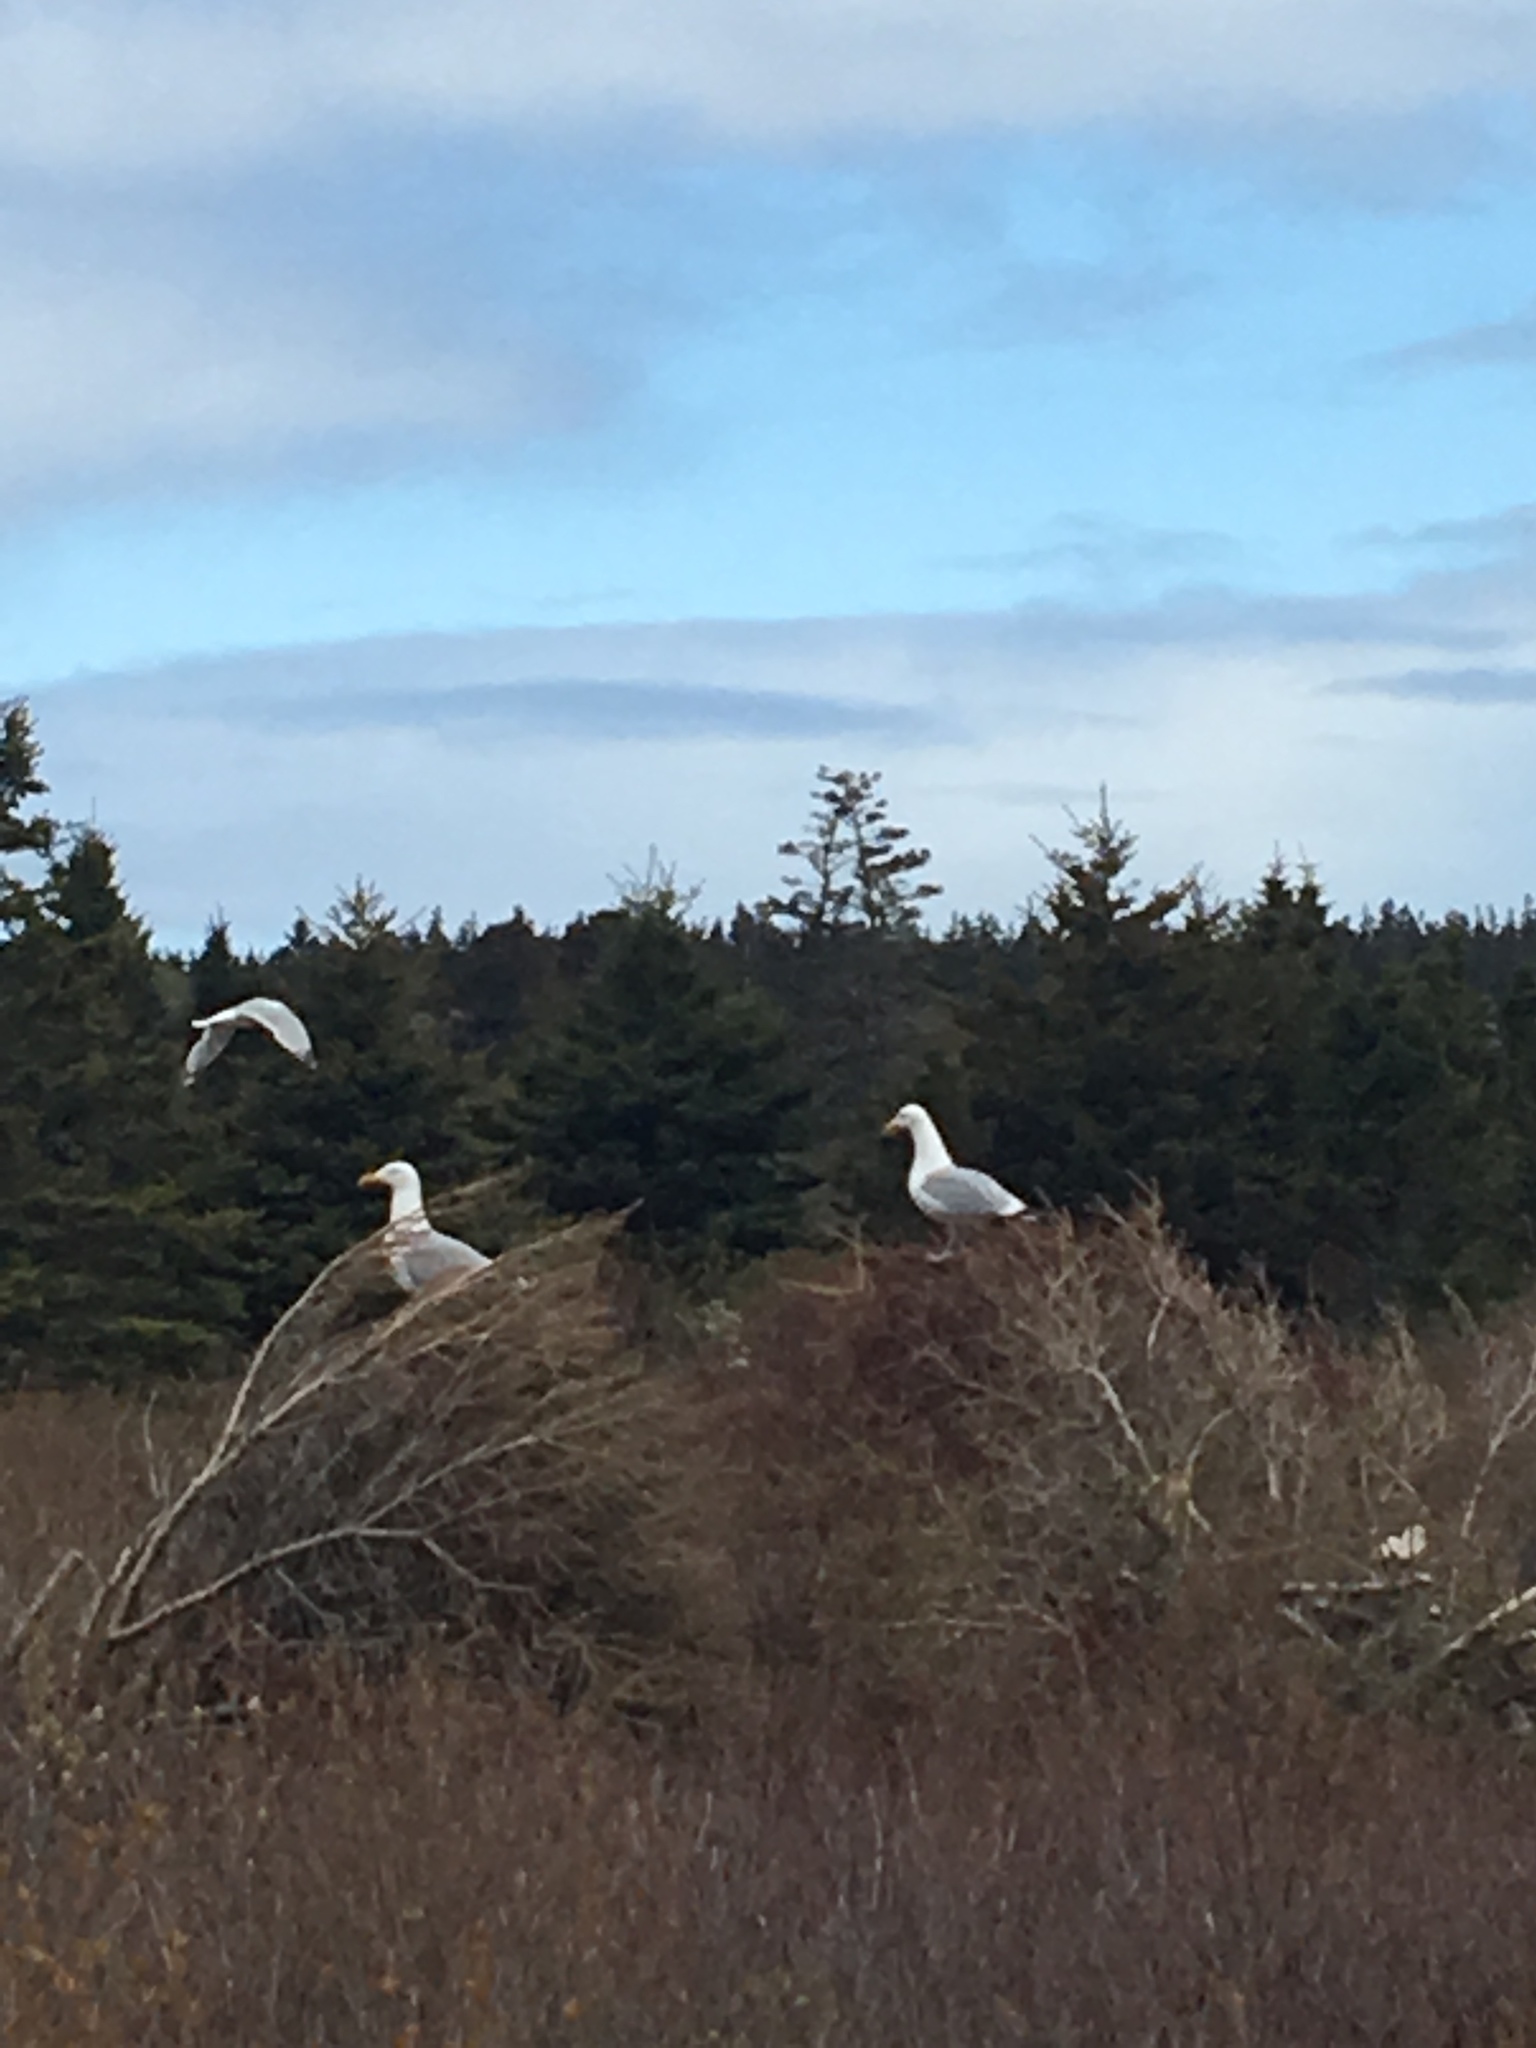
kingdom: Animalia
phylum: Chordata
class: Aves
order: Charadriiformes
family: Laridae
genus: Larus
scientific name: Larus argentatus
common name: Herring gull
